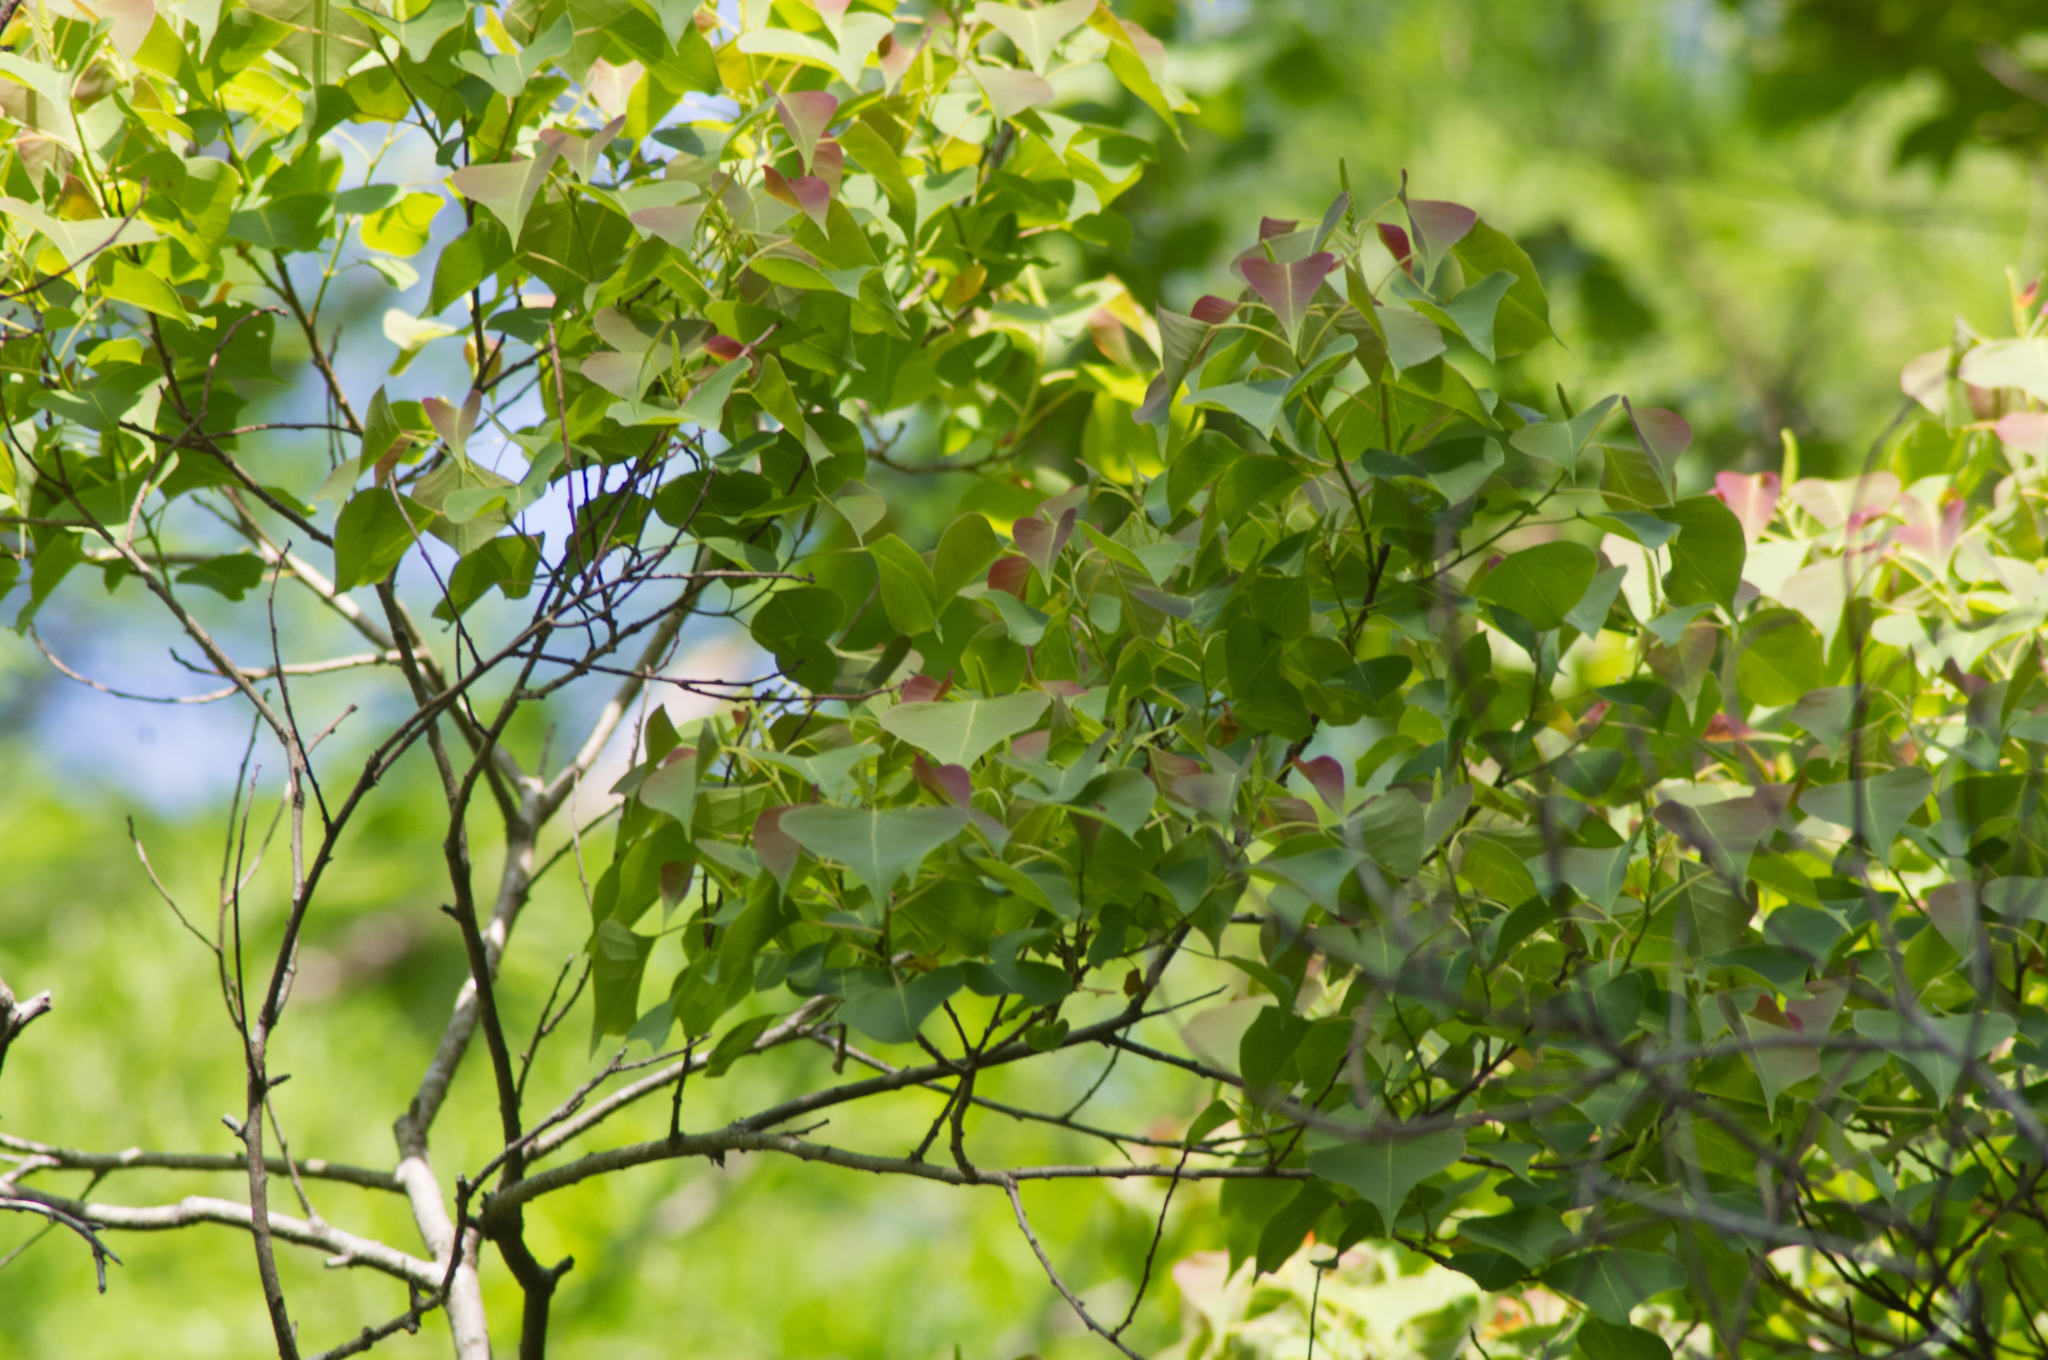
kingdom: Plantae
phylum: Tracheophyta
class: Magnoliopsida
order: Malpighiales
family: Euphorbiaceae
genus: Triadica
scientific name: Triadica sebifera
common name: Chinese tallow
